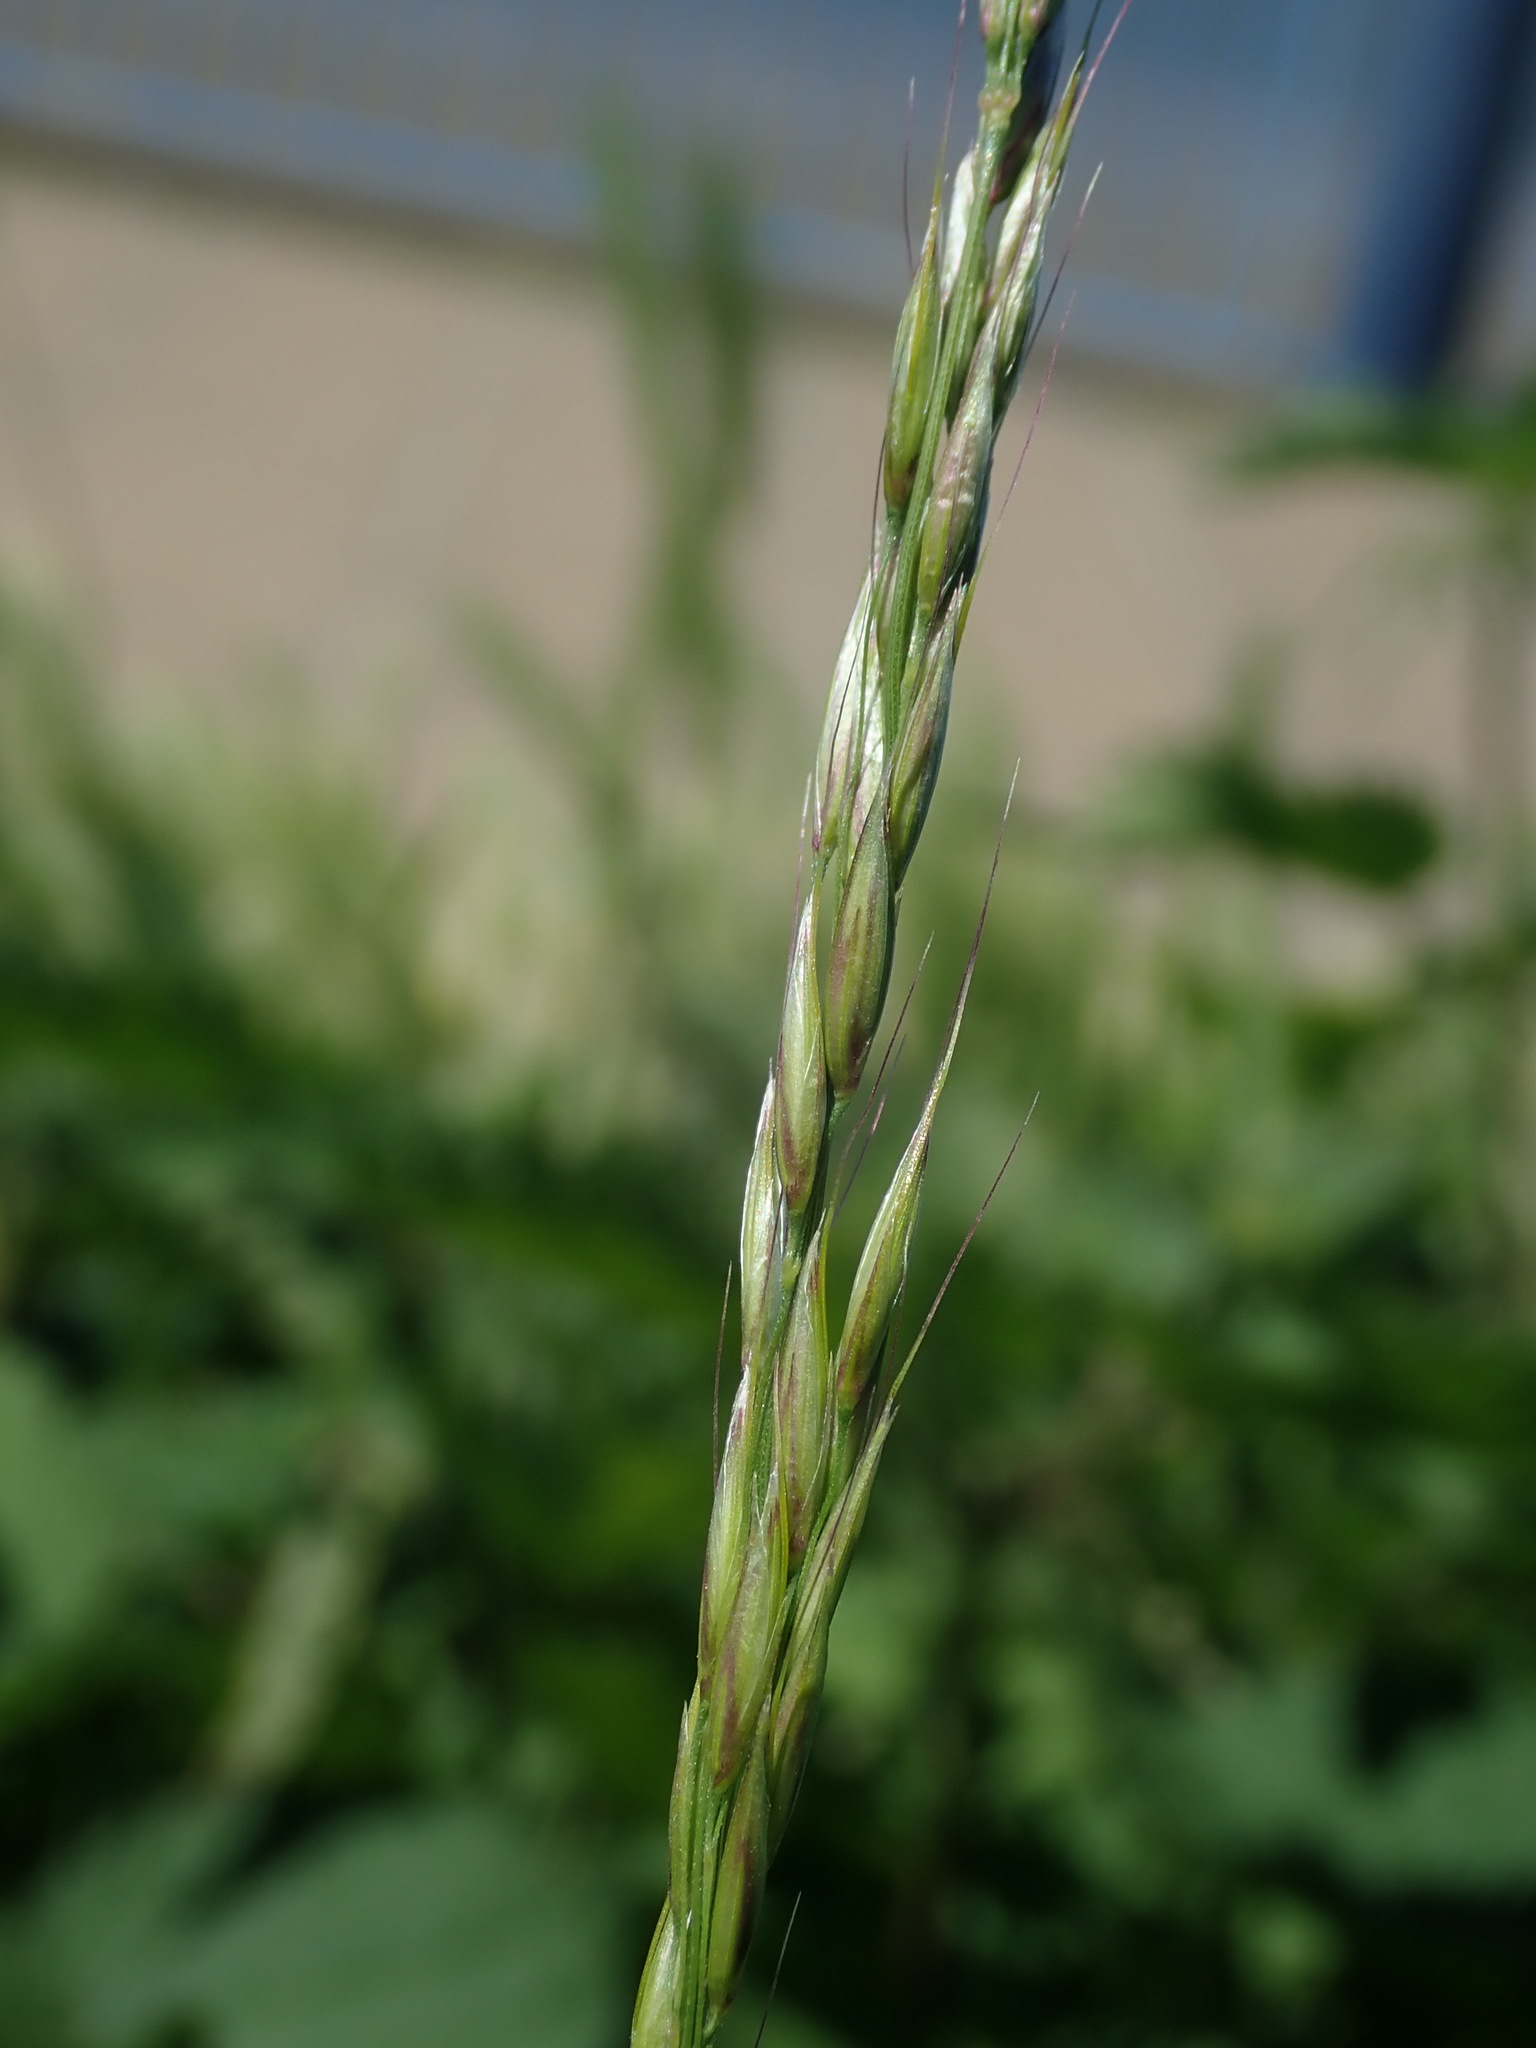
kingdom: Plantae
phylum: Tracheophyta
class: Liliopsida
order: Poales
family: Poaceae
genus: Arrhenatherum
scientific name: Arrhenatherum elatius
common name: Tall oatgrass
